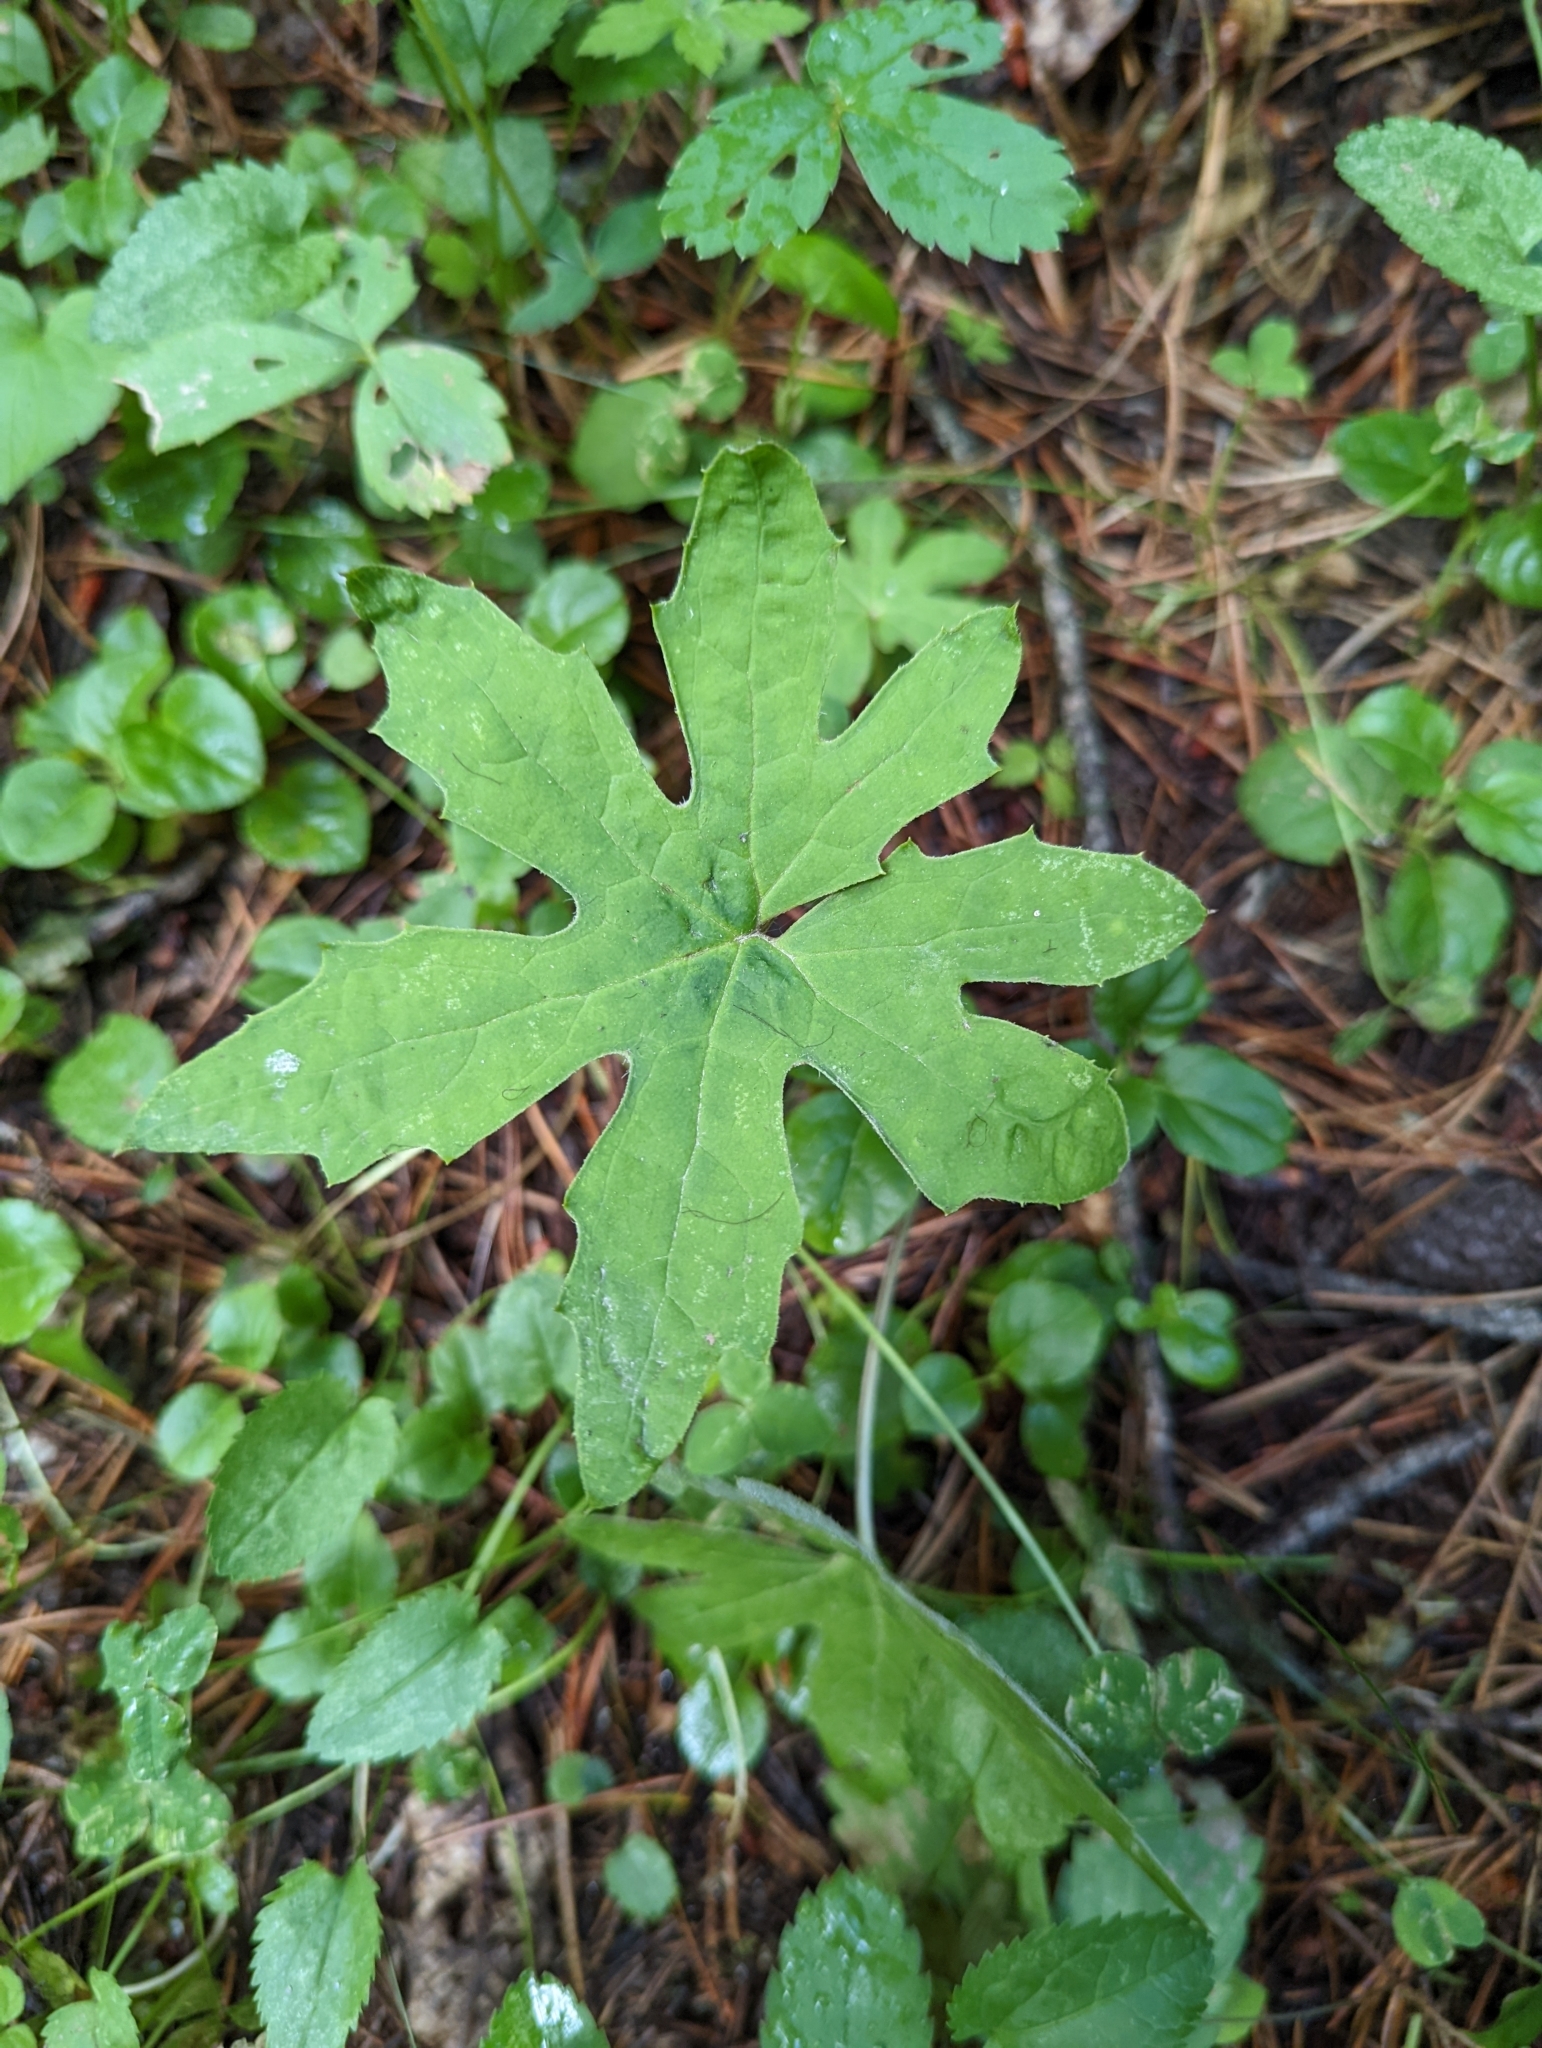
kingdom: Plantae
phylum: Tracheophyta
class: Magnoliopsida
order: Asterales
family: Asteraceae
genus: Petasites
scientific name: Petasites frigidus
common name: Arctic butterbur
